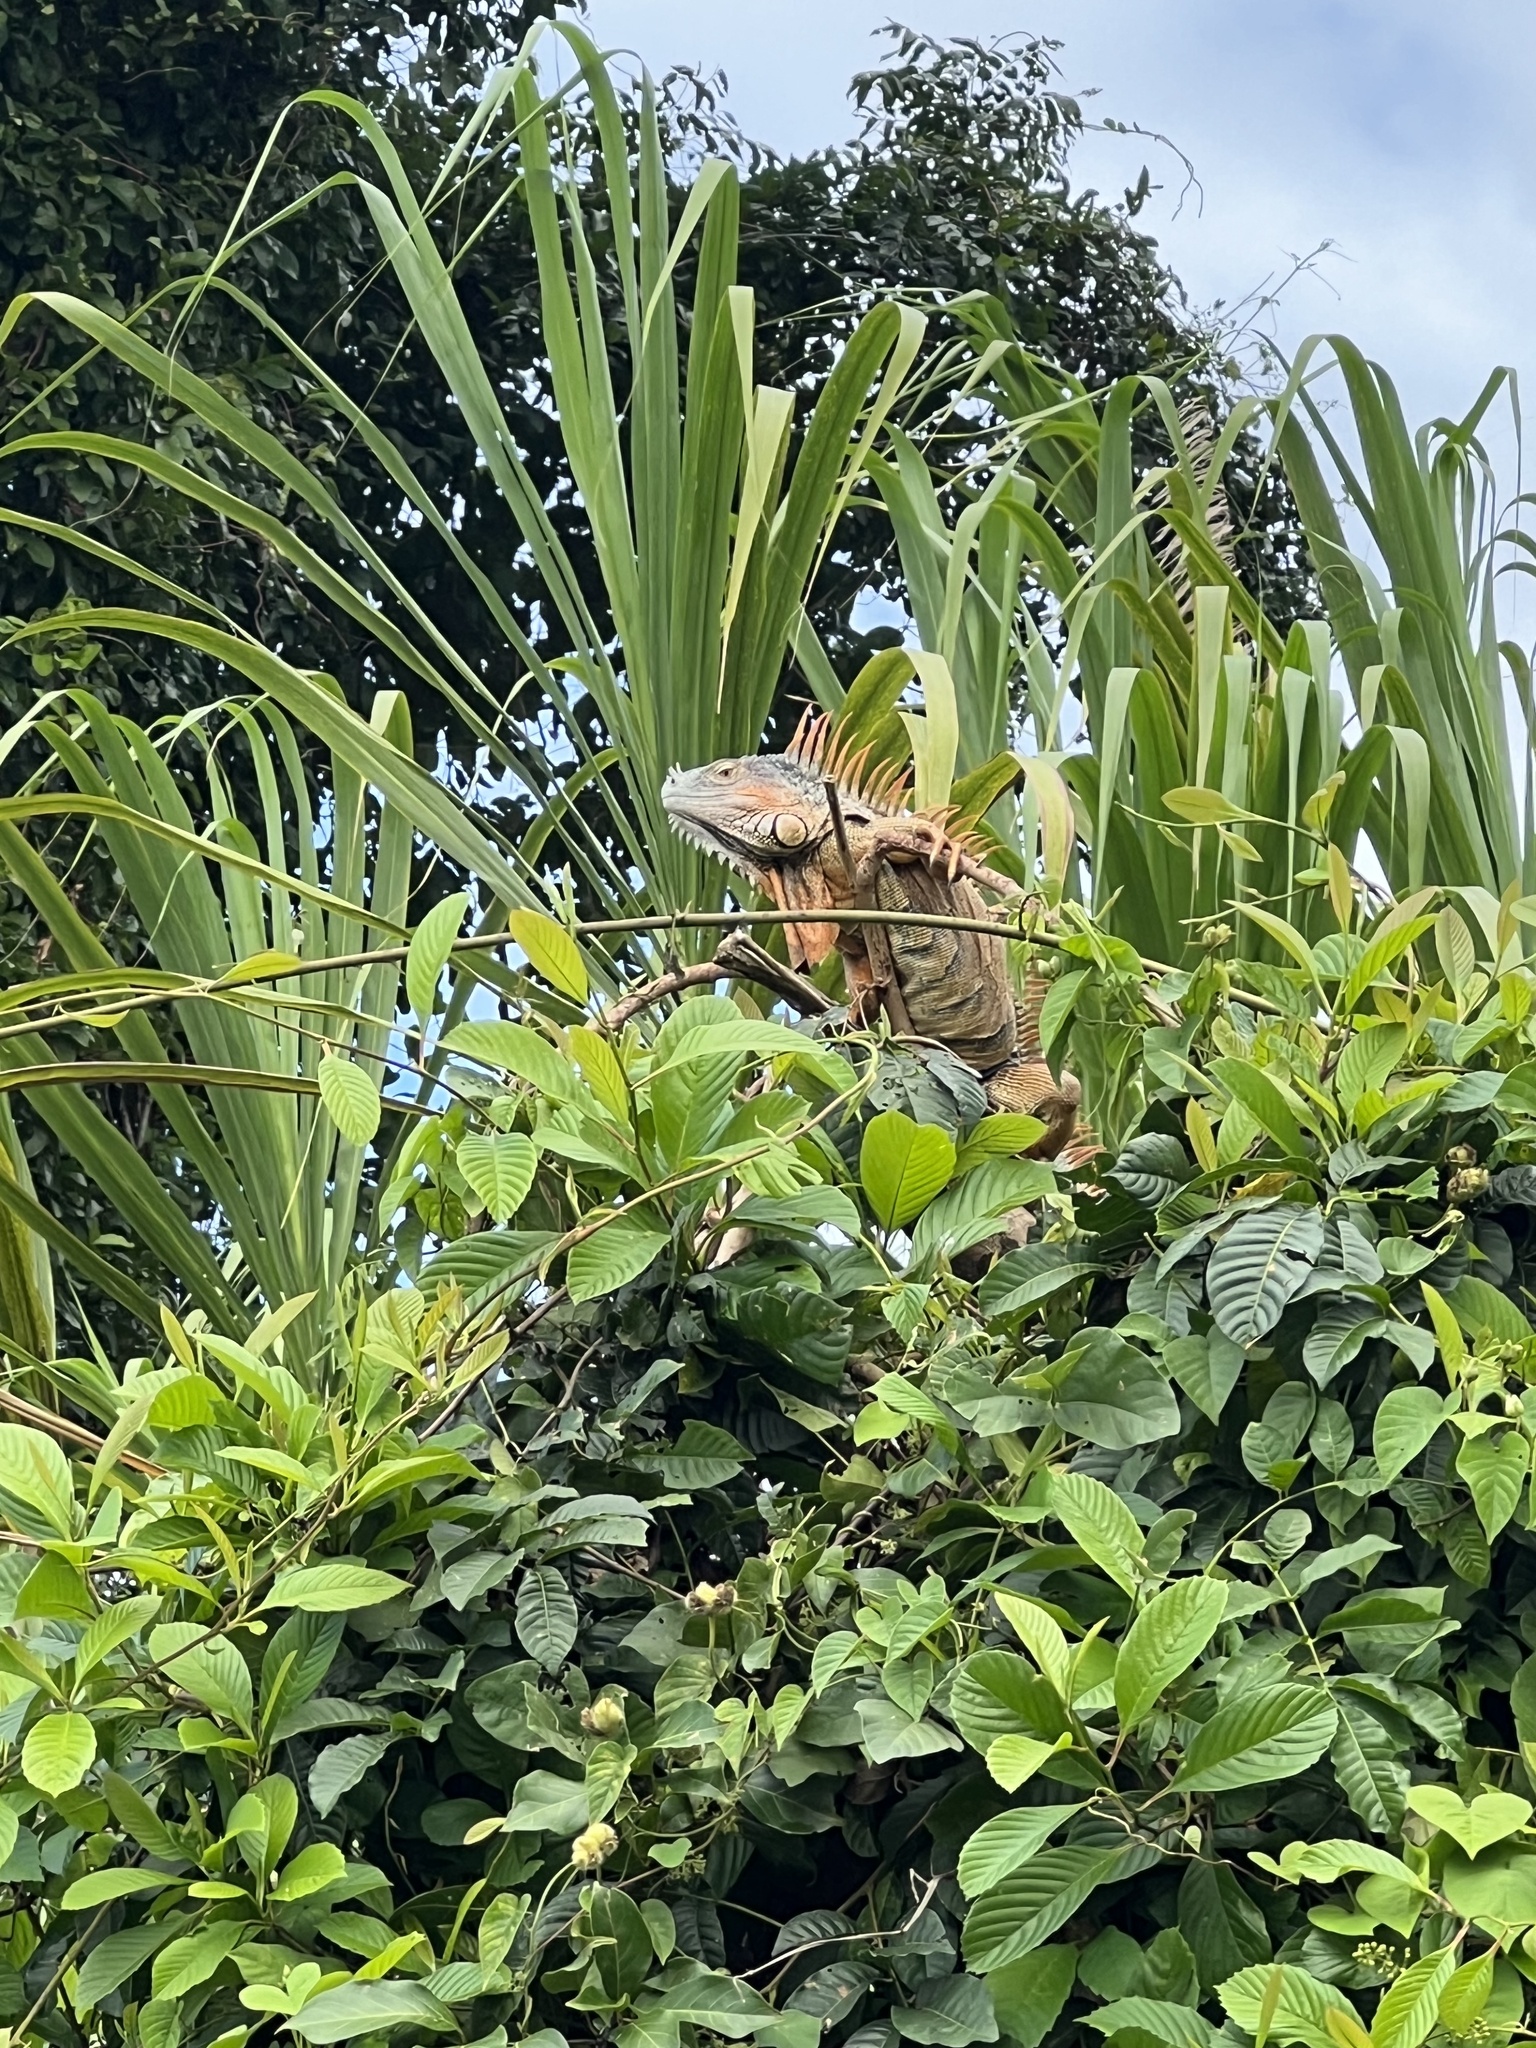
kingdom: Animalia
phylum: Chordata
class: Squamata
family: Iguanidae
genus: Iguana
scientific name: Iguana iguana
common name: Green iguana
